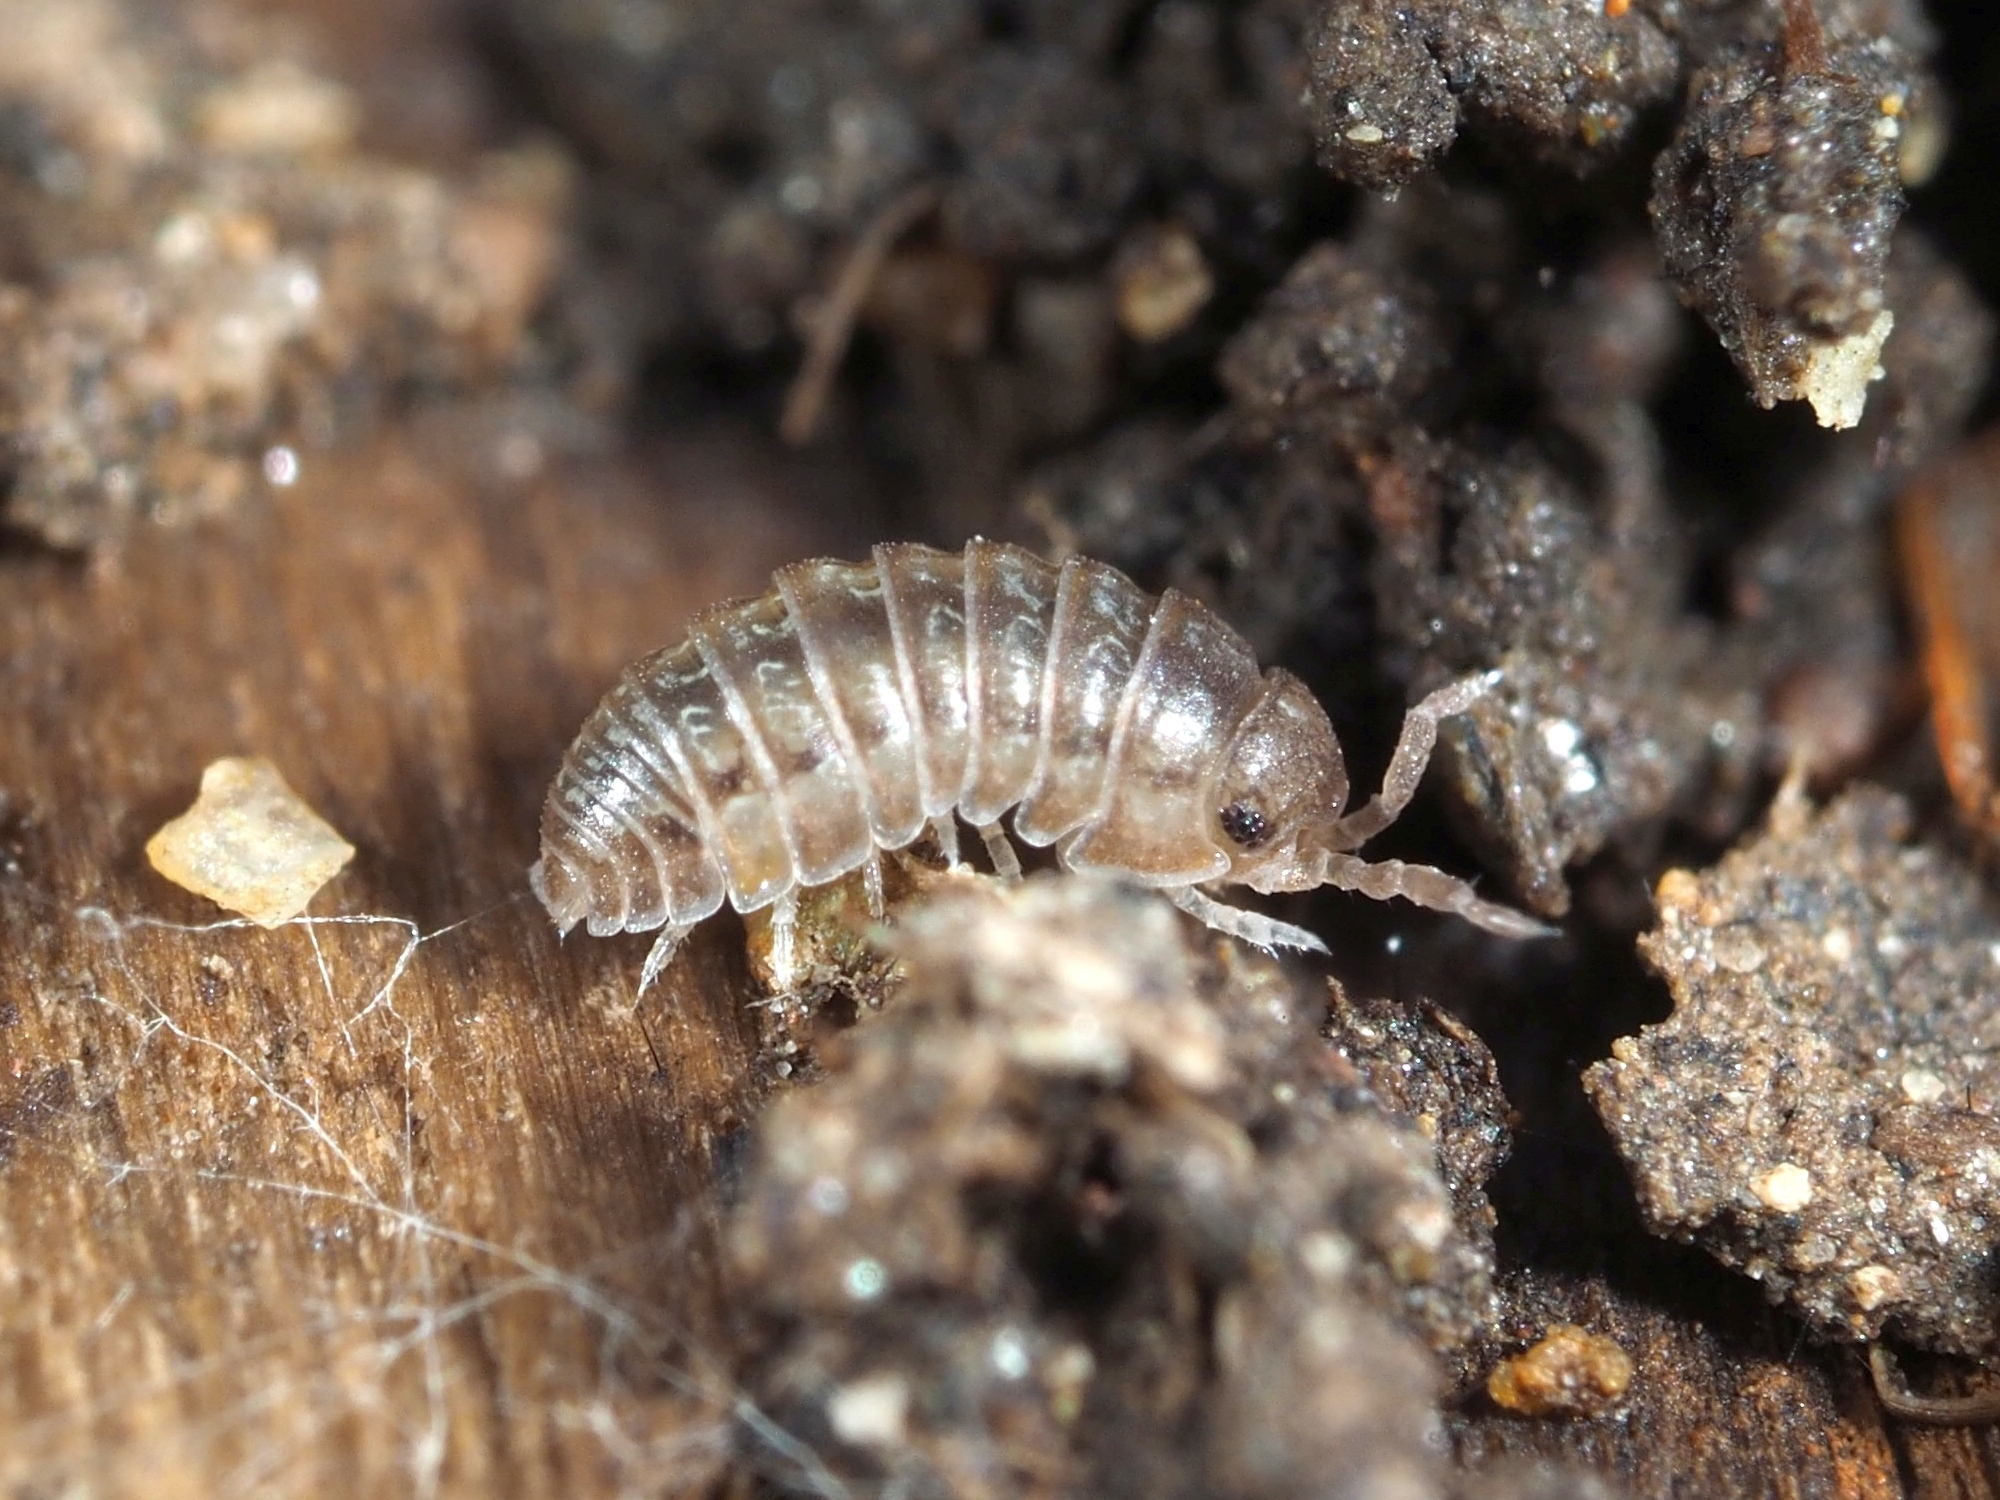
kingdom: Animalia
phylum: Arthropoda
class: Malacostraca
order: Isopoda
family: Armadillidiidae
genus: Armadillidium
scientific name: Armadillidium decorum
